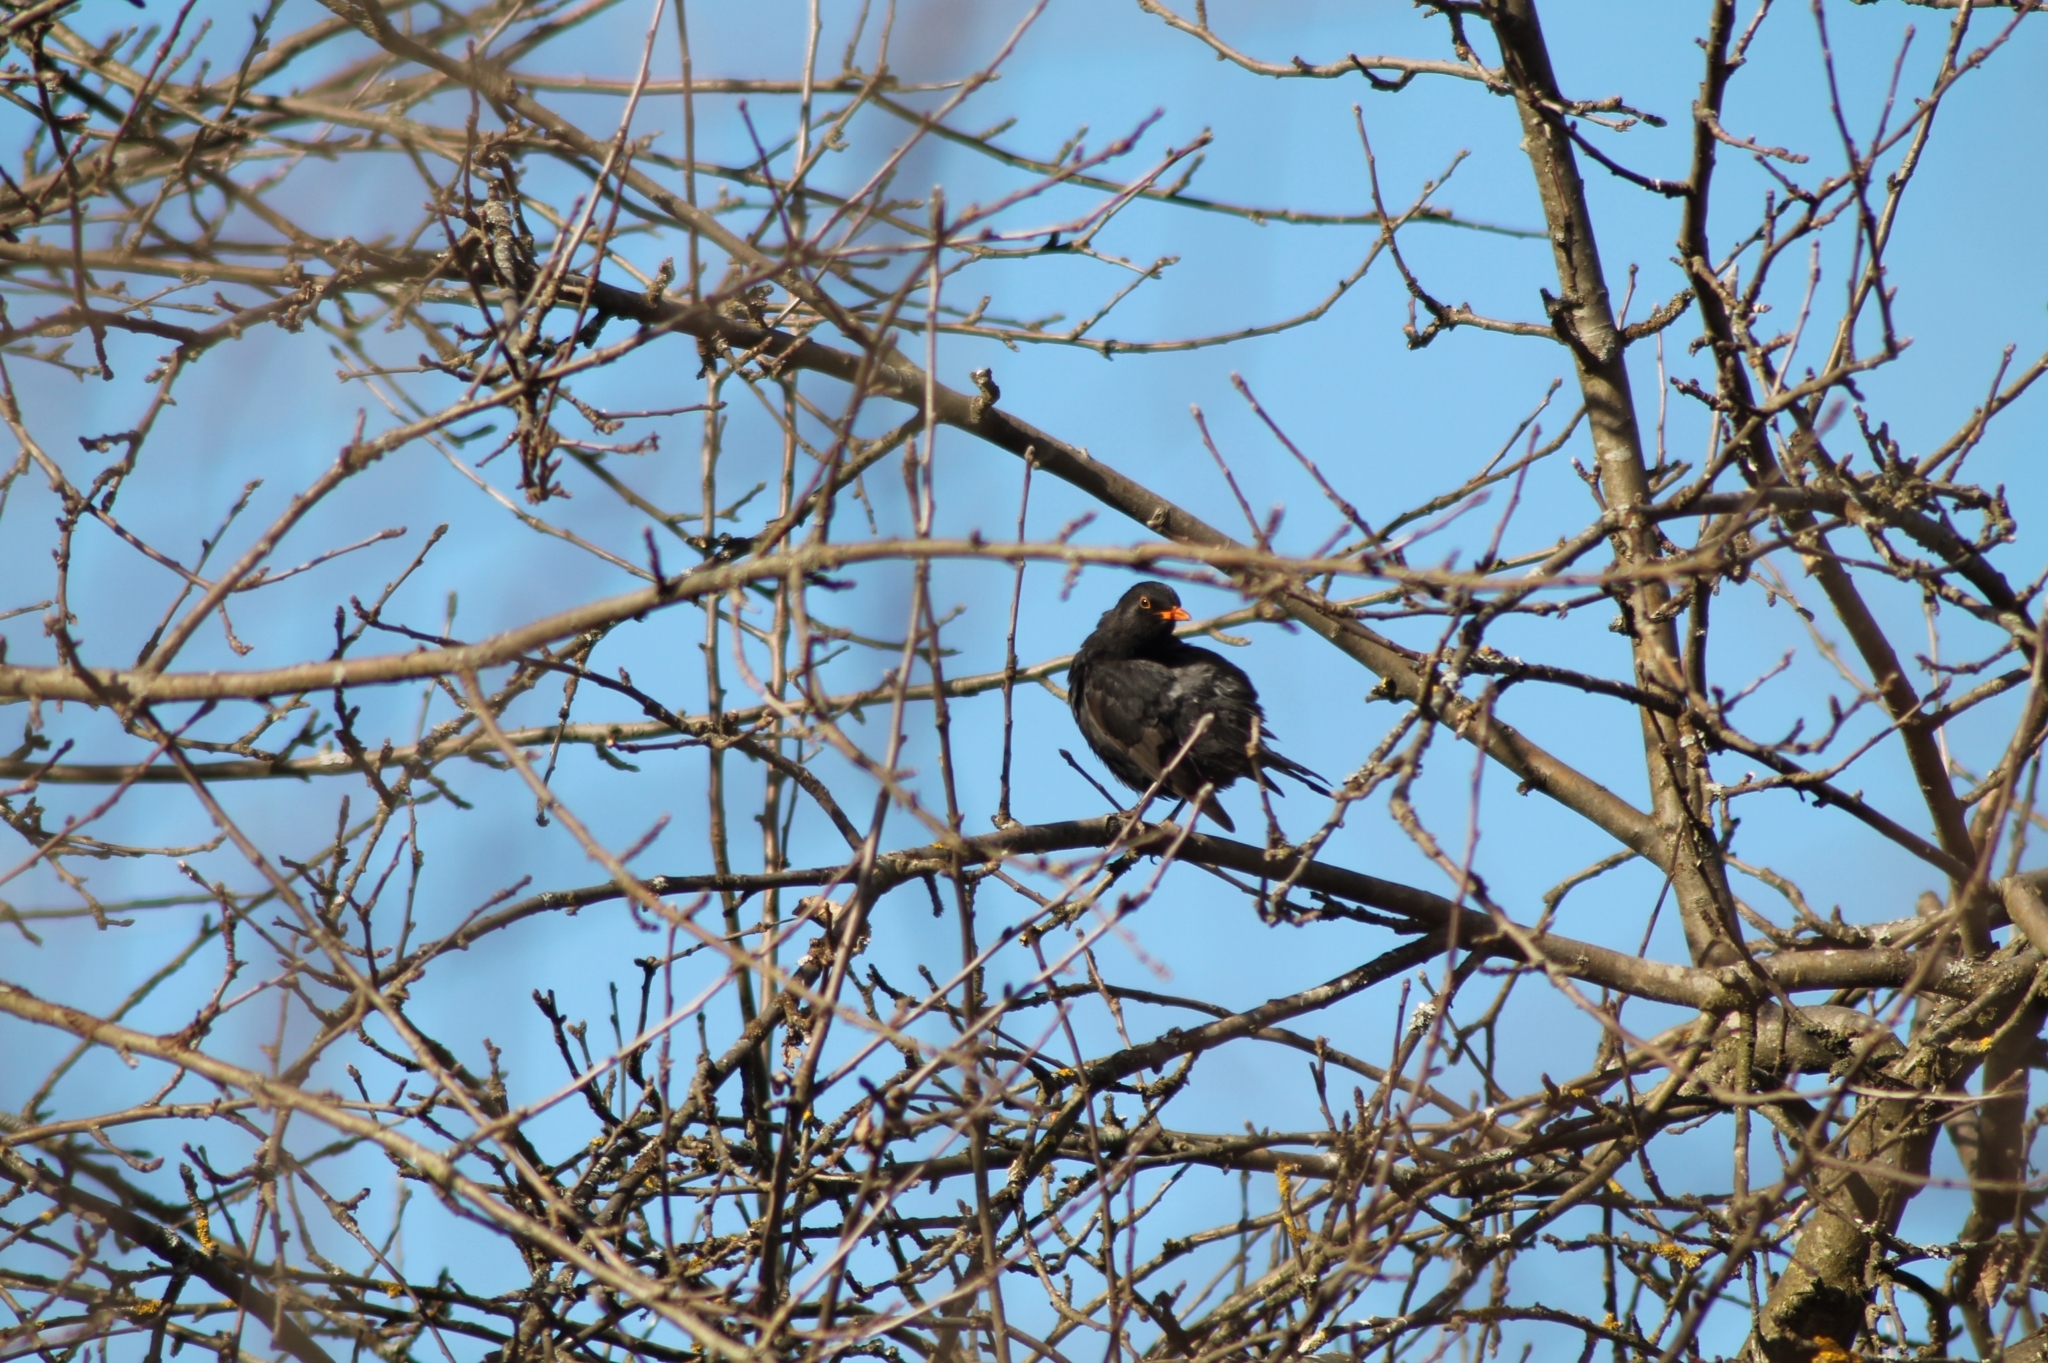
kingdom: Animalia
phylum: Chordata
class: Aves
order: Passeriformes
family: Turdidae
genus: Turdus
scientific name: Turdus merula
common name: Common blackbird
